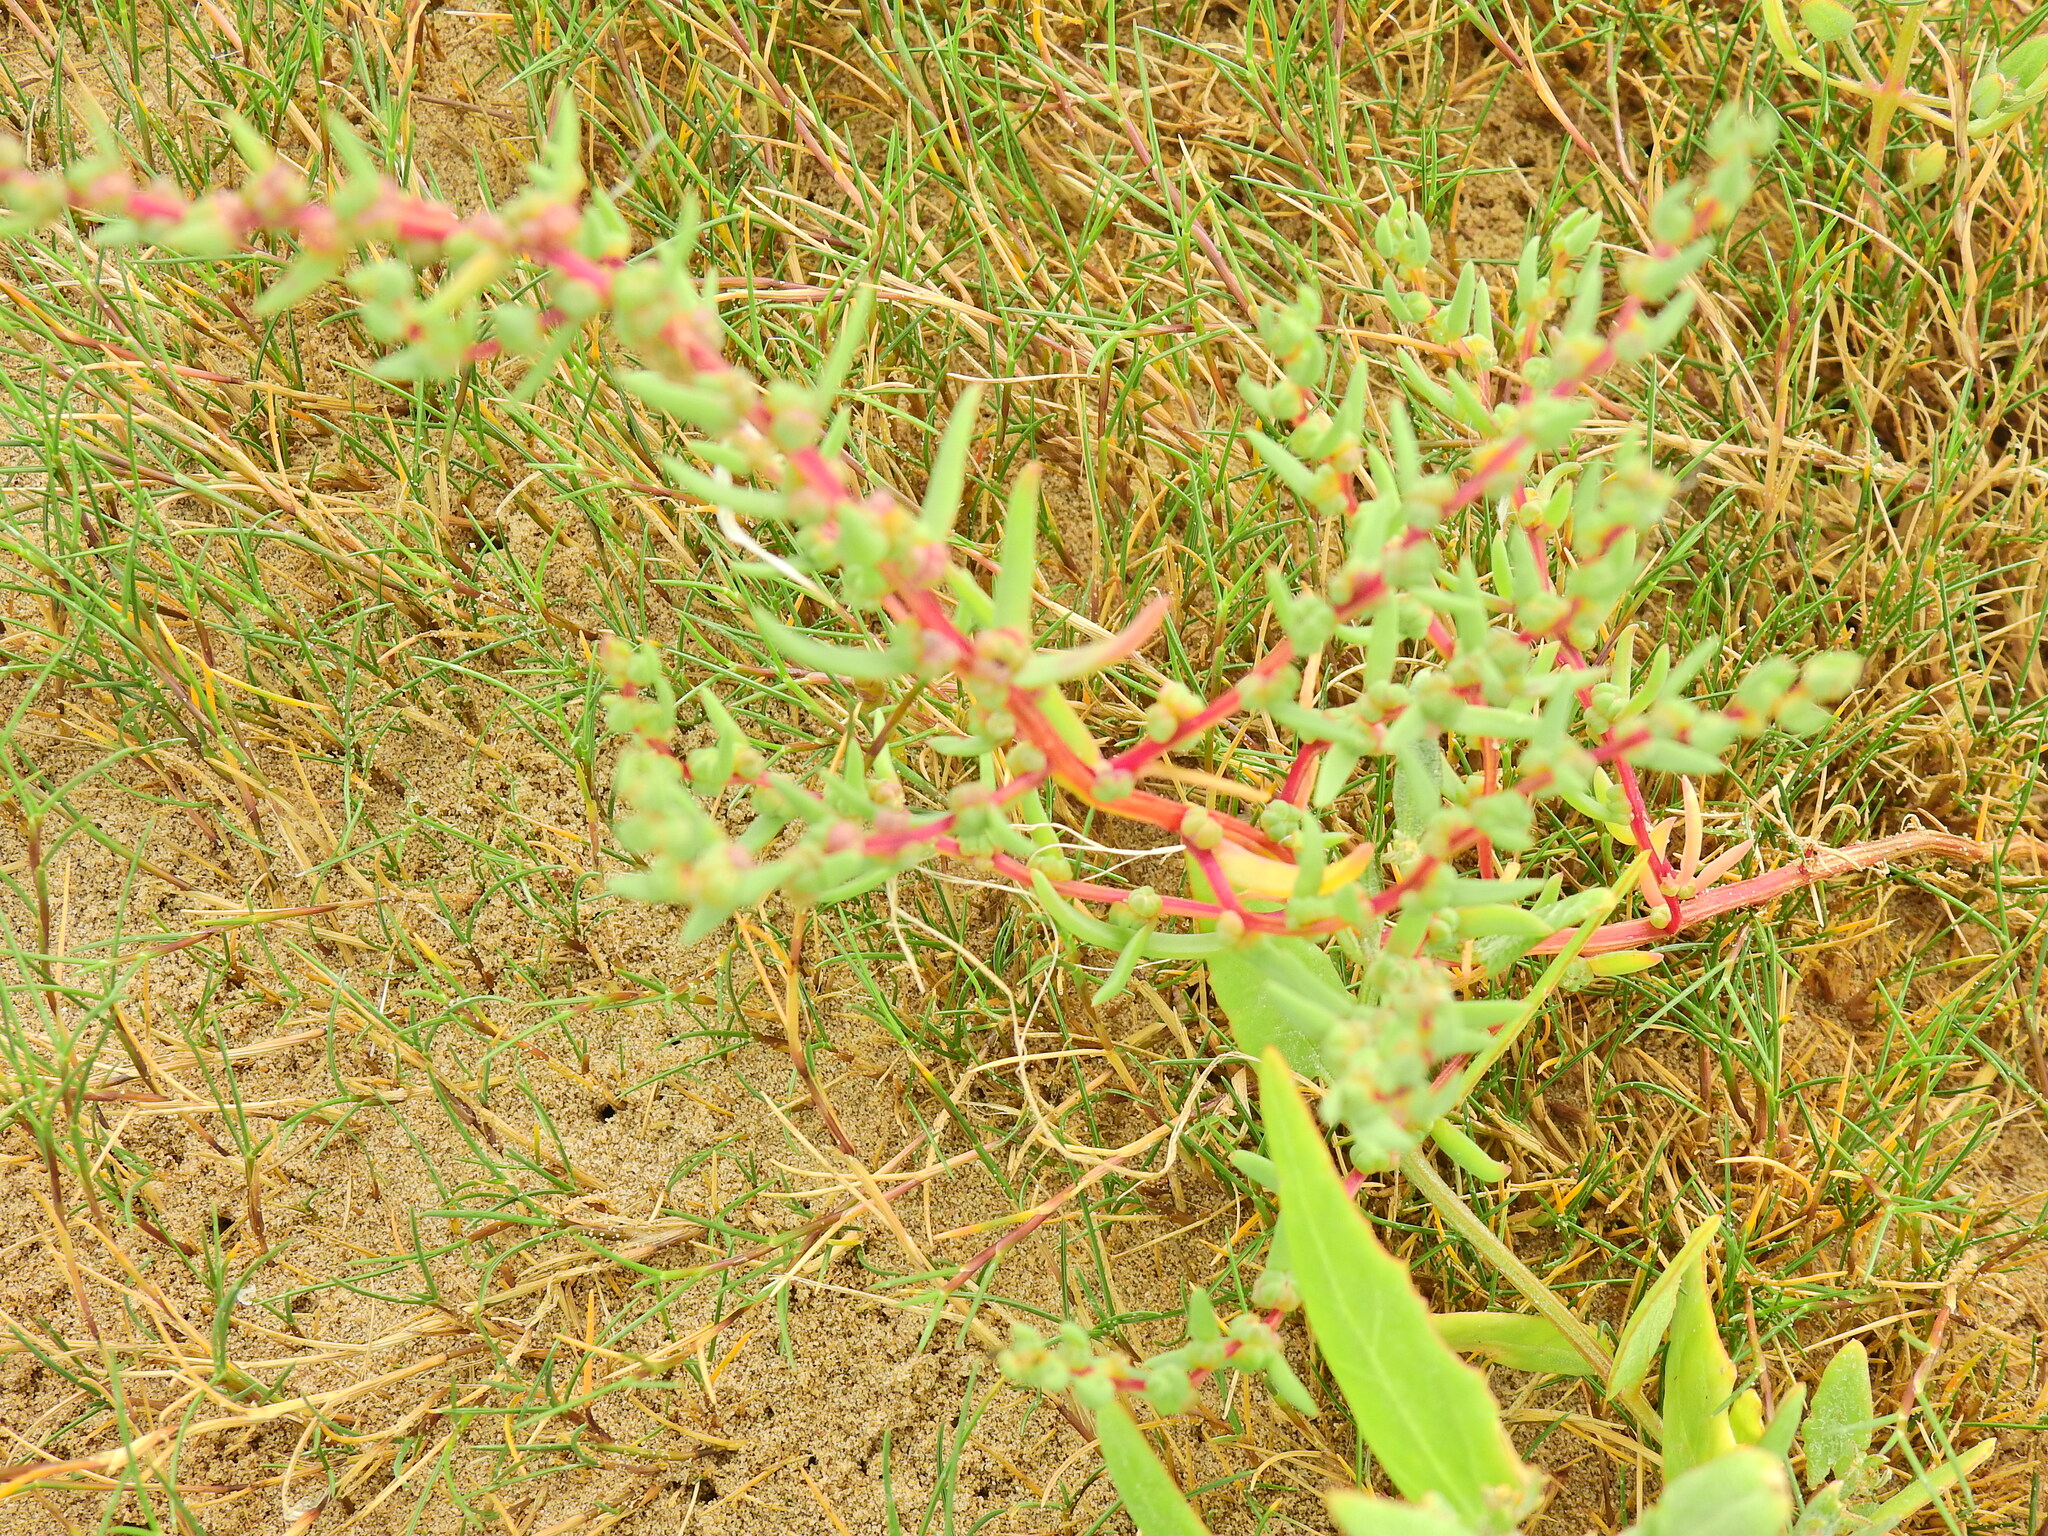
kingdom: Plantae
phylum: Tracheophyta
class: Magnoliopsida
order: Caryophyllales
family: Amaranthaceae
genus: Suaeda
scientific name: Suaeda maritima
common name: Annual sea-blite
